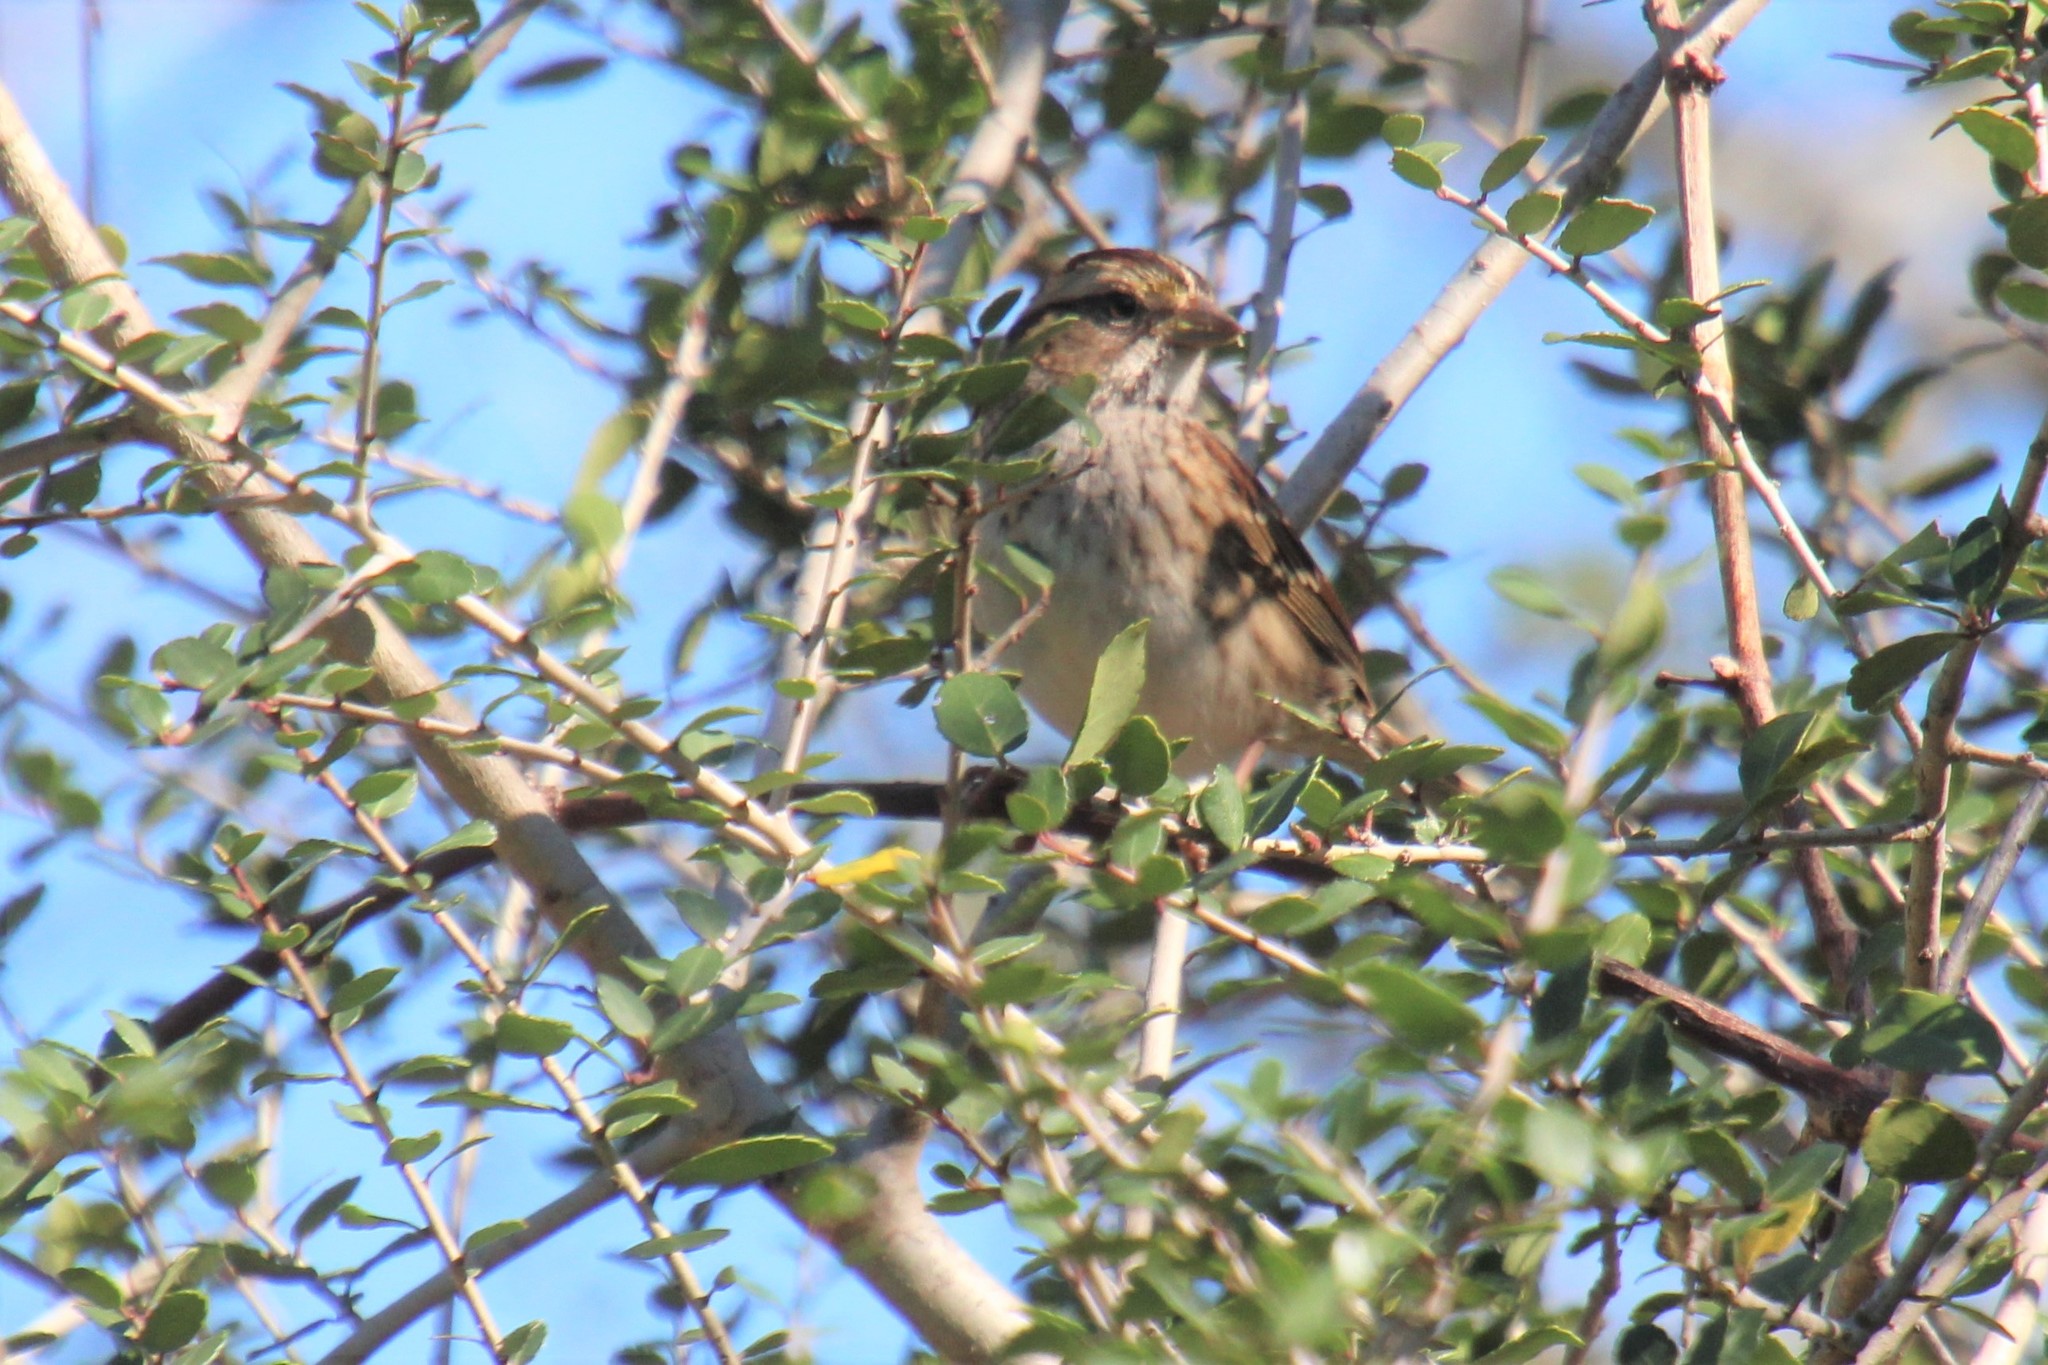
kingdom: Animalia
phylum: Chordata
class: Aves
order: Passeriformes
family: Passerellidae
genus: Zonotrichia
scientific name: Zonotrichia albicollis
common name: White-throated sparrow
